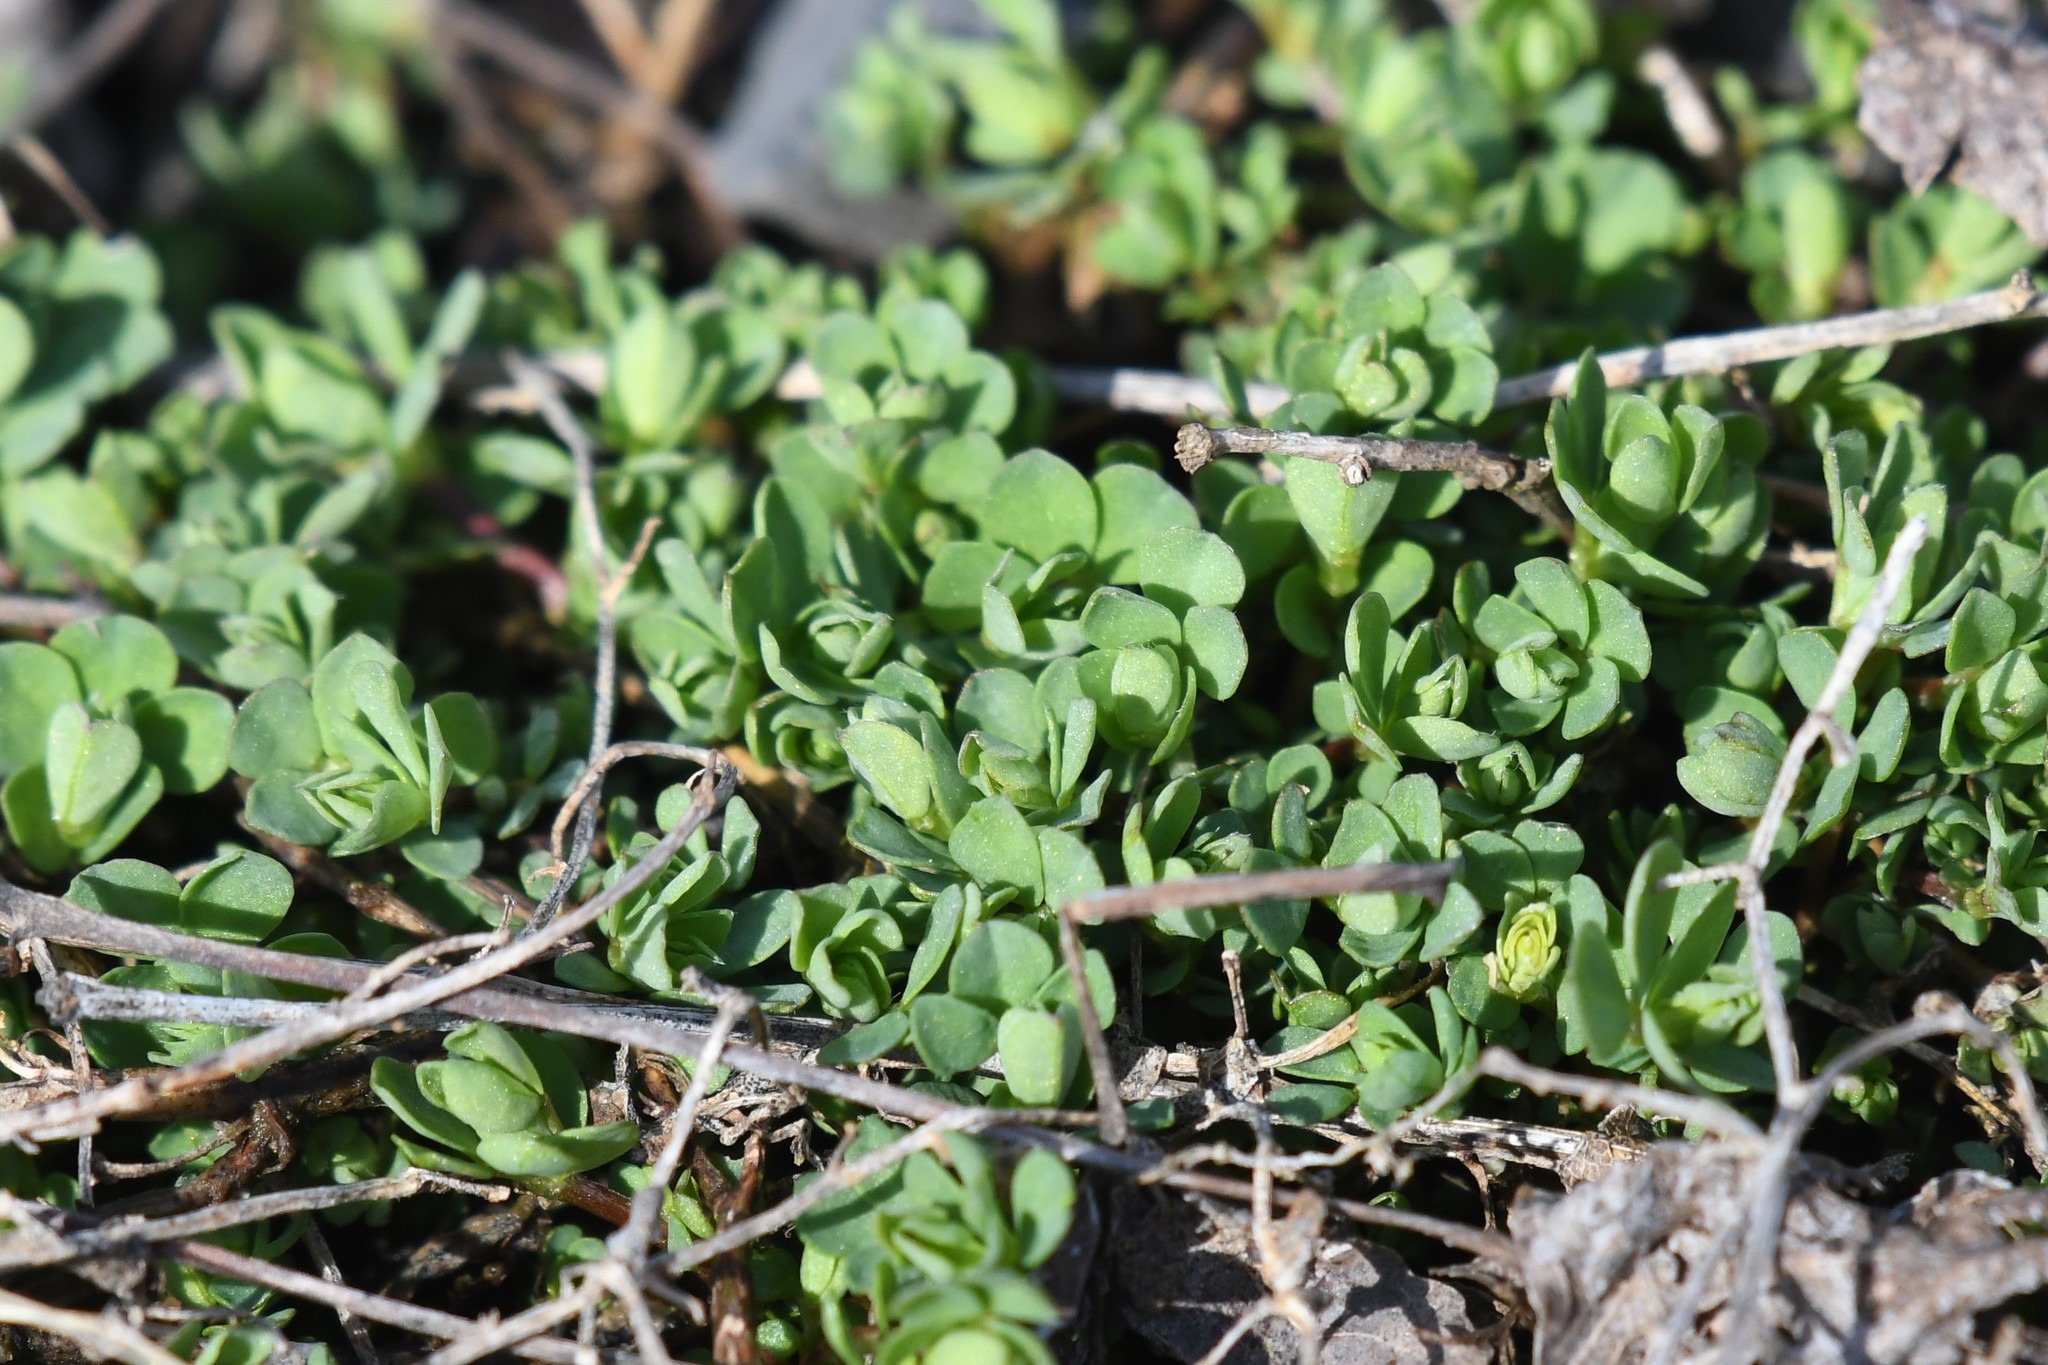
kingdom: Plantae
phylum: Tracheophyta
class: Magnoliopsida
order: Fabales
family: Fabaceae
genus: Lotus
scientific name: Lotus corniculatus
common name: Common bird's-foot-trefoil
